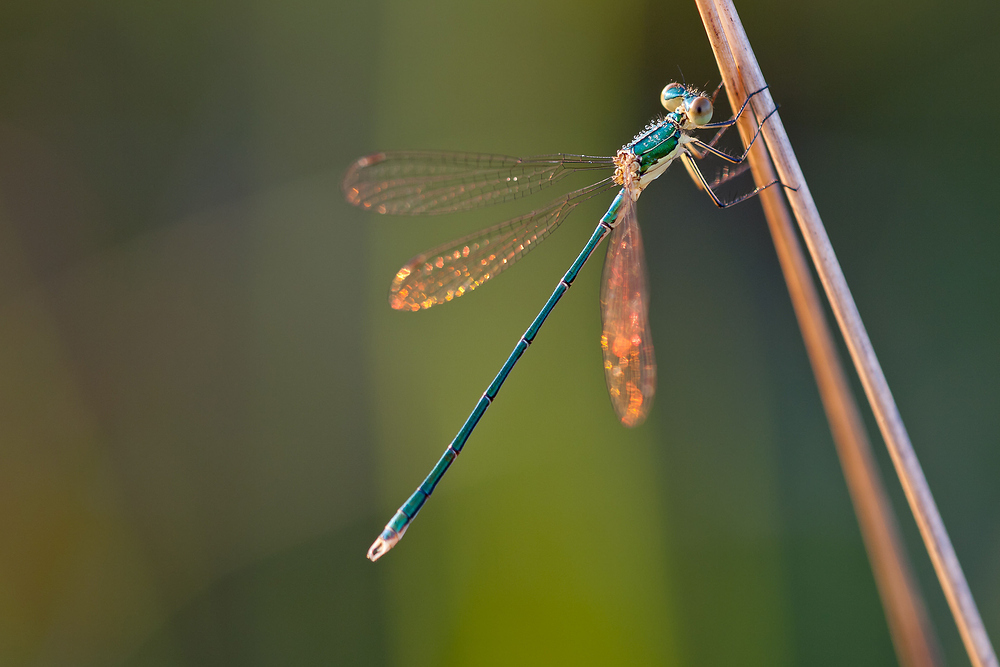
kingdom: Animalia
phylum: Arthropoda
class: Insecta
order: Odonata
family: Lestidae
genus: Lestes
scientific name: Lestes virens
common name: Small emerald spreadwing
